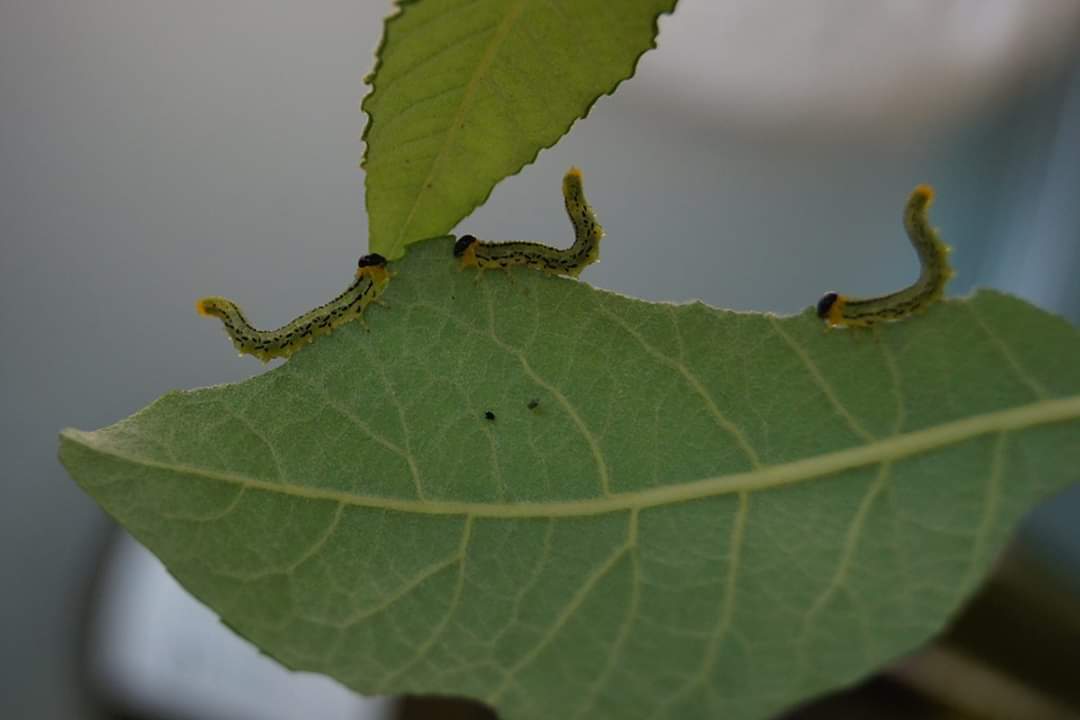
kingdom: Animalia
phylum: Arthropoda
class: Insecta
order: Hymenoptera
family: Tenthredinidae
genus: Nematus
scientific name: Nematus pavidus
